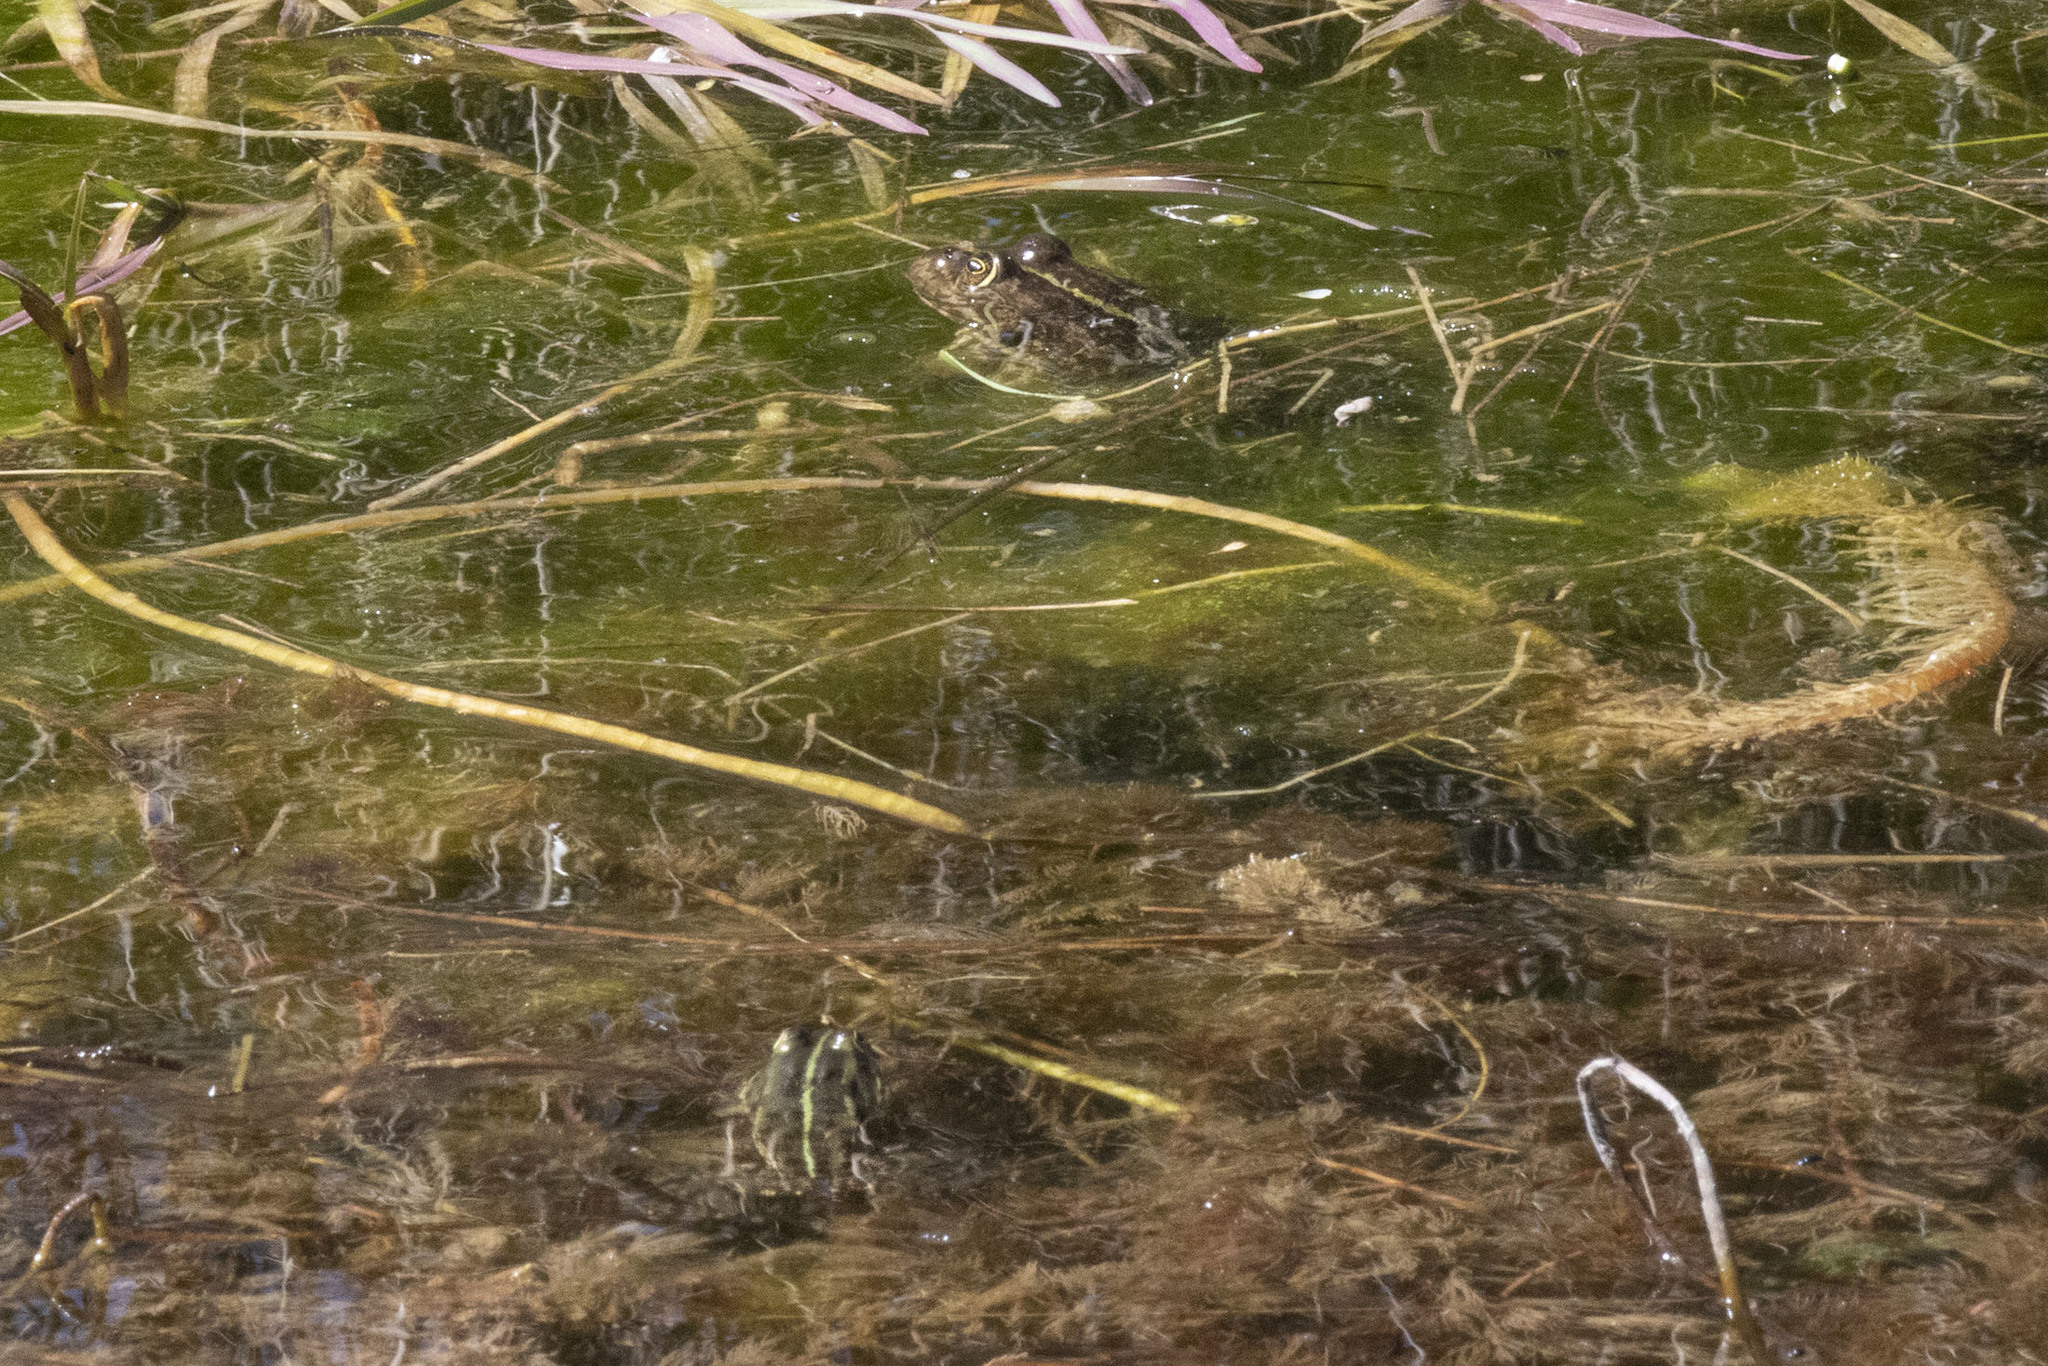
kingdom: Animalia
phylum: Chordata
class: Amphibia
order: Anura
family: Ranidae
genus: Pelophylax
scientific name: Pelophylax ridibundus
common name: Marsh frog
